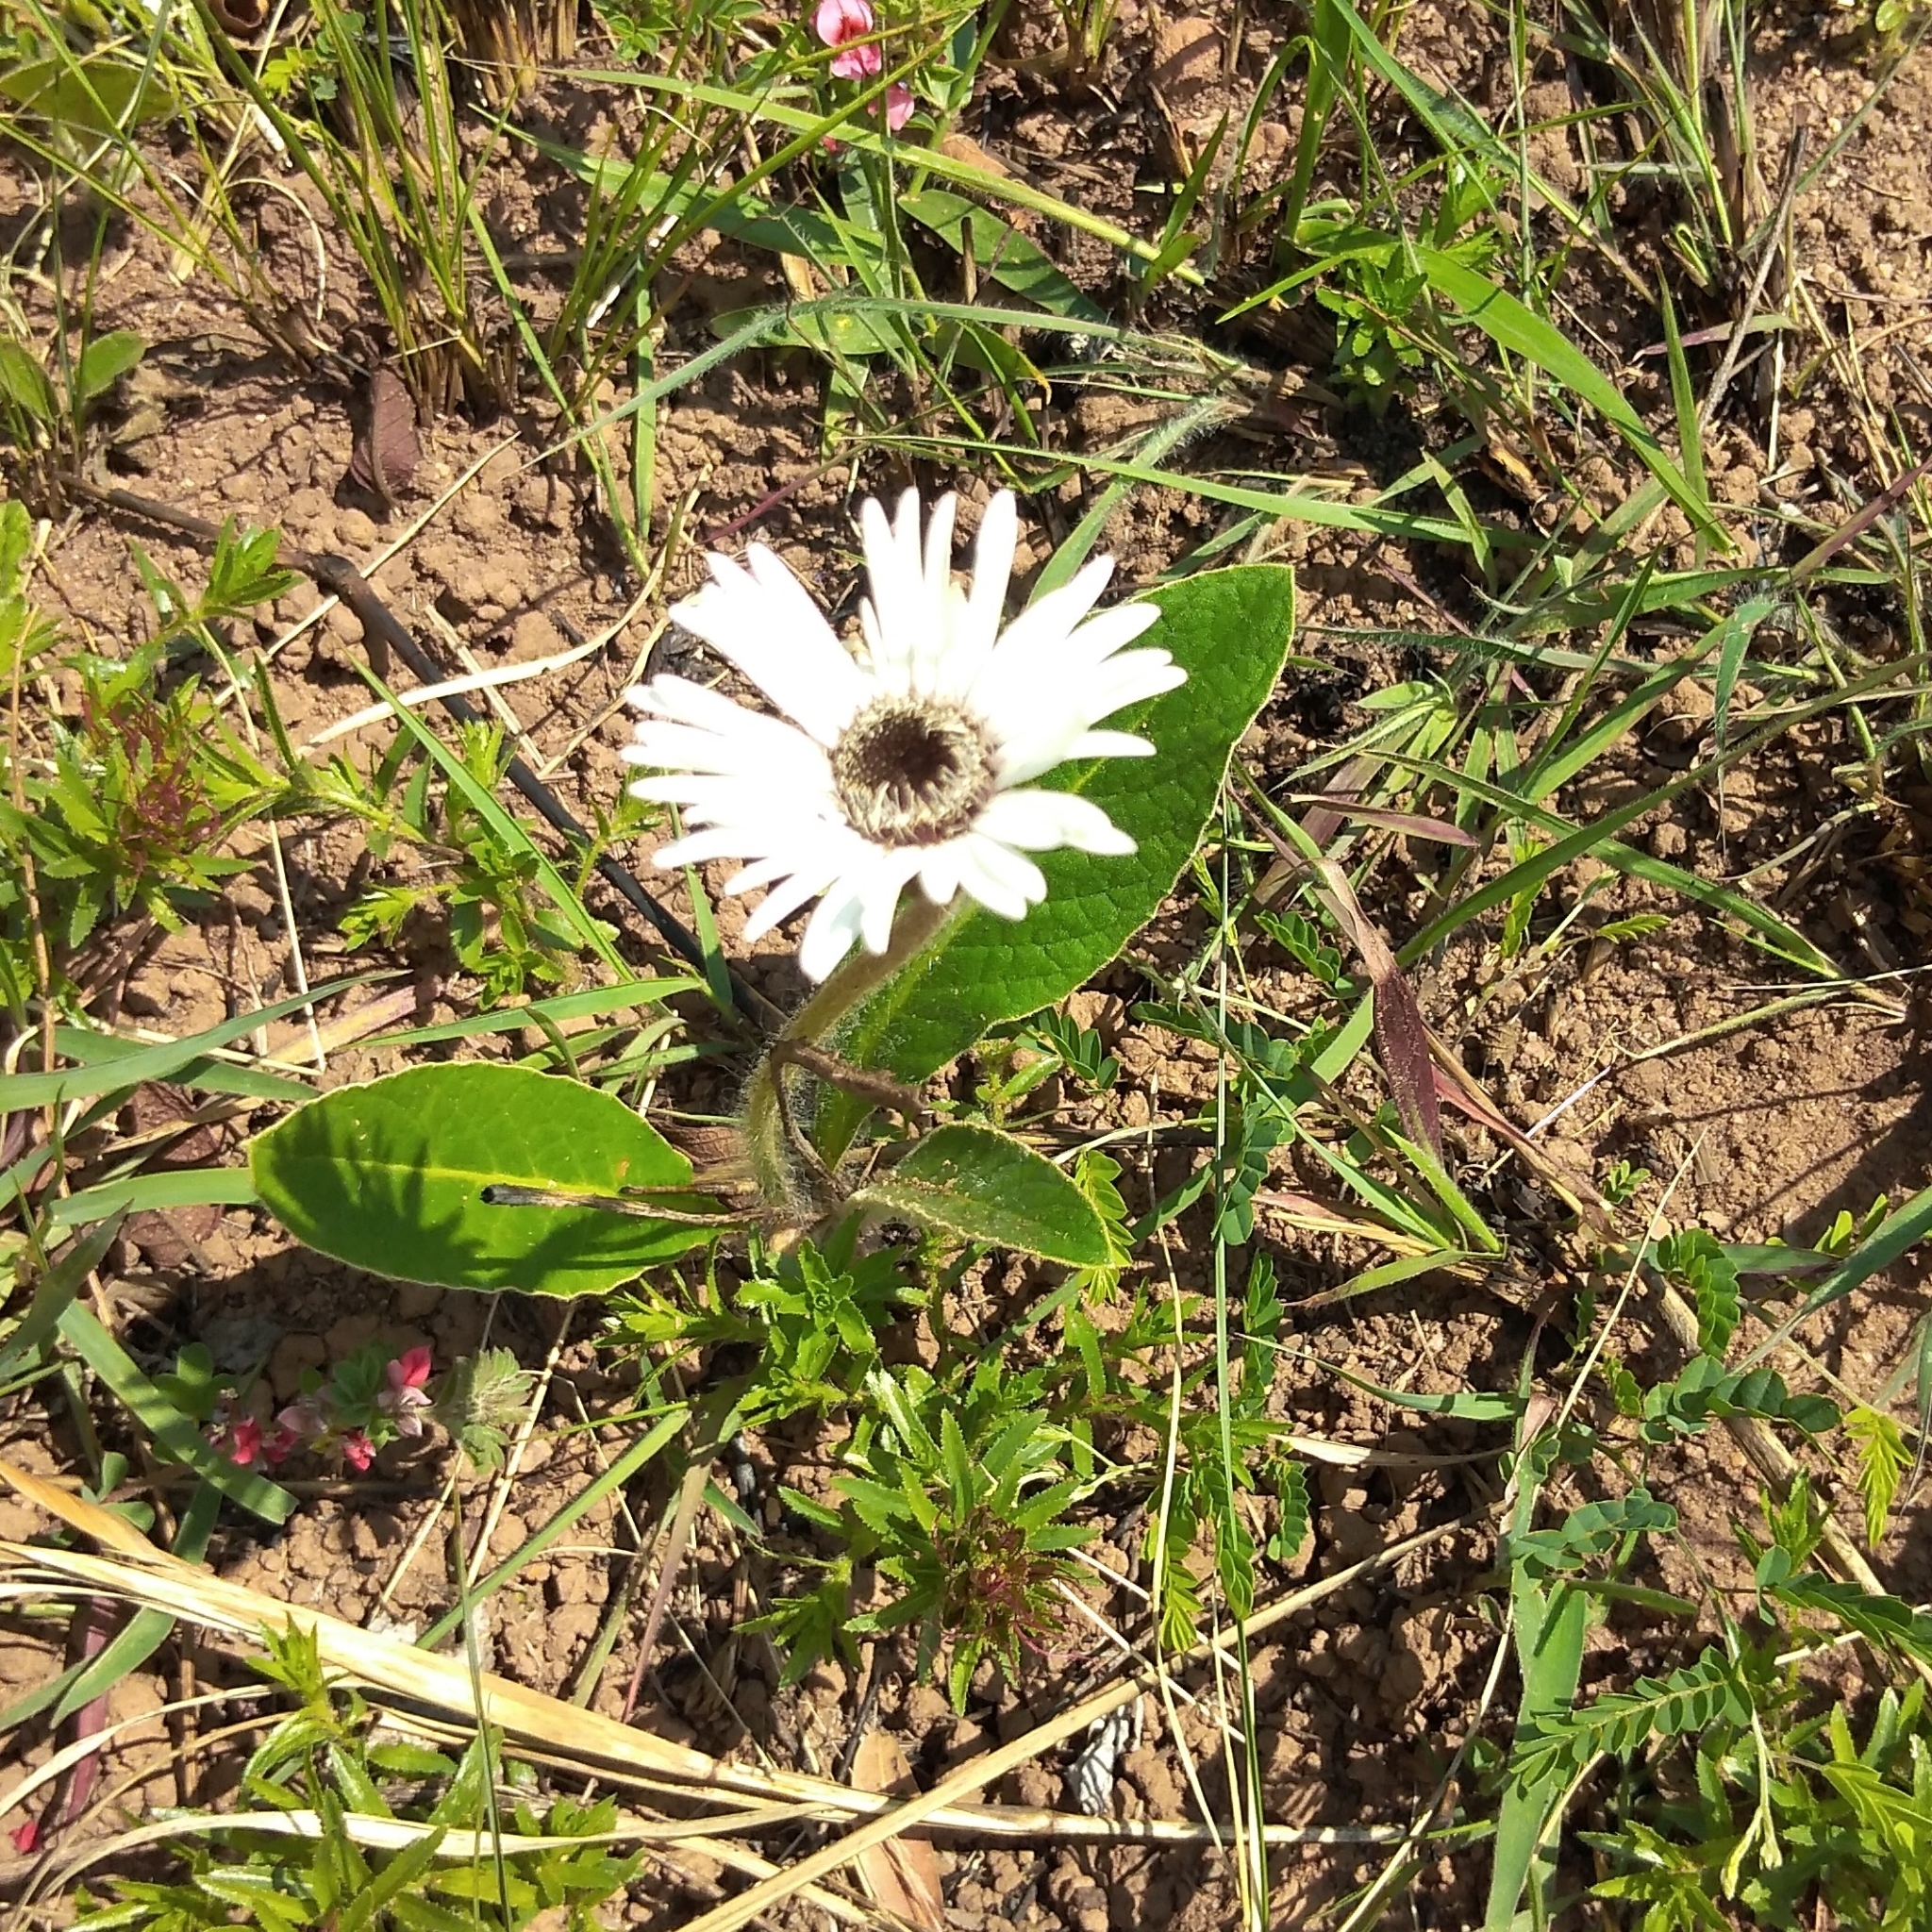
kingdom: Plantae
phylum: Tracheophyta
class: Magnoliopsida
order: Asterales
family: Asteraceae
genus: Gerbera
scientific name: Gerbera ambigua
